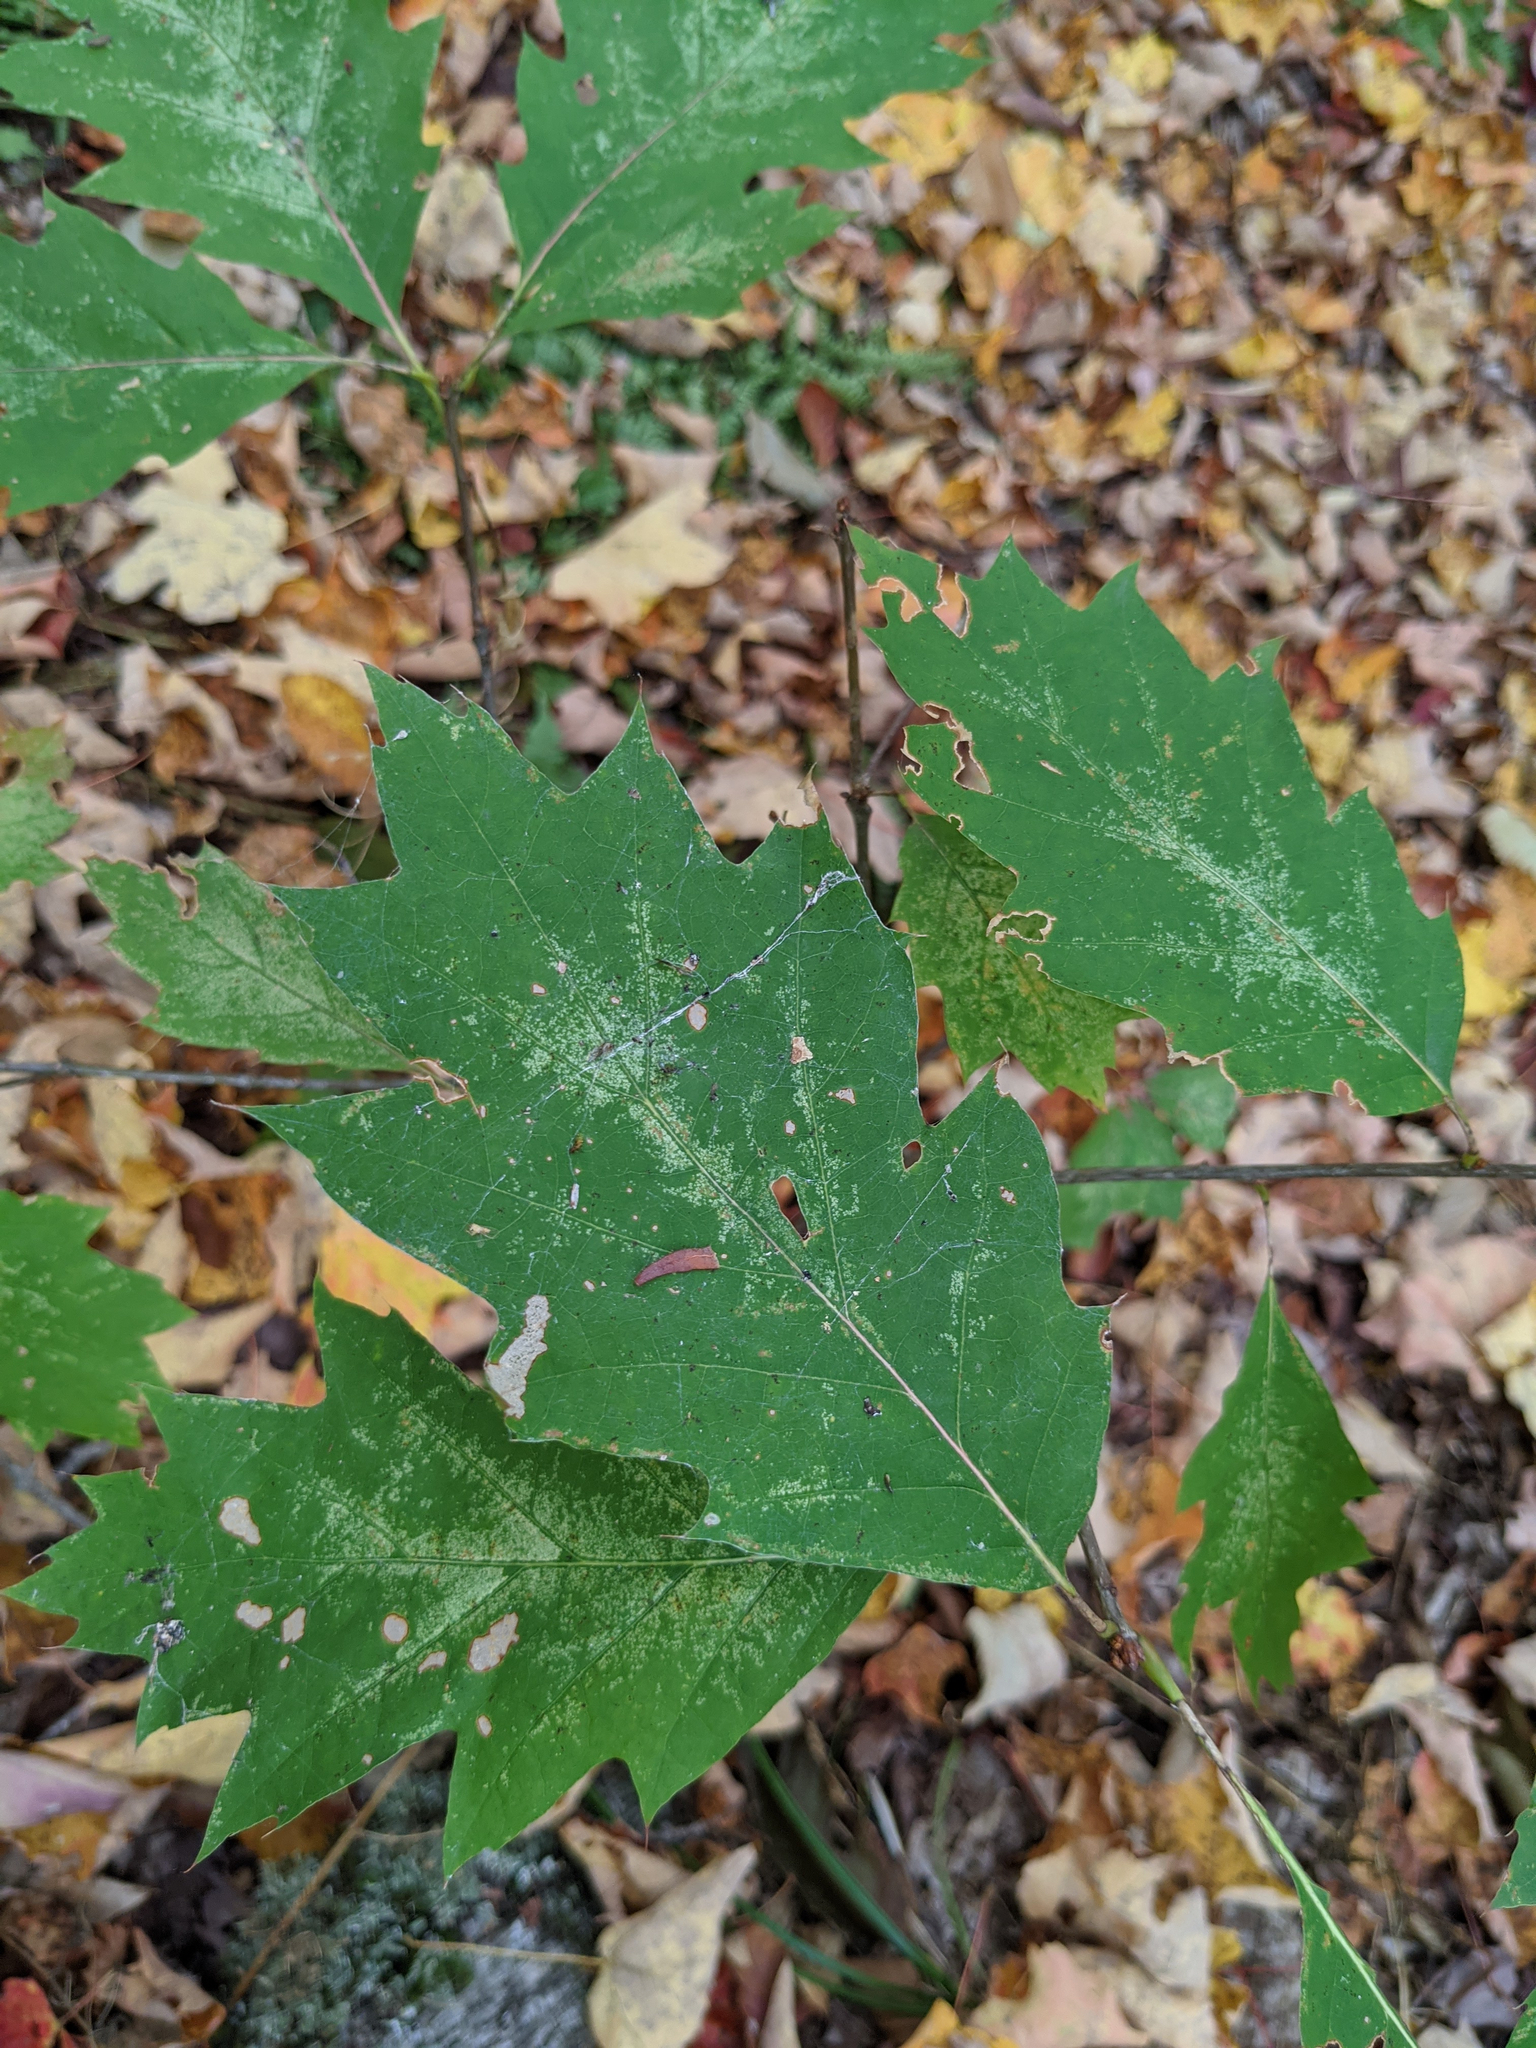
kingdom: Plantae
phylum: Tracheophyta
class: Magnoliopsida
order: Fagales
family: Fagaceae
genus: Quercus
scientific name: Quercus rubra
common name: Red oak
